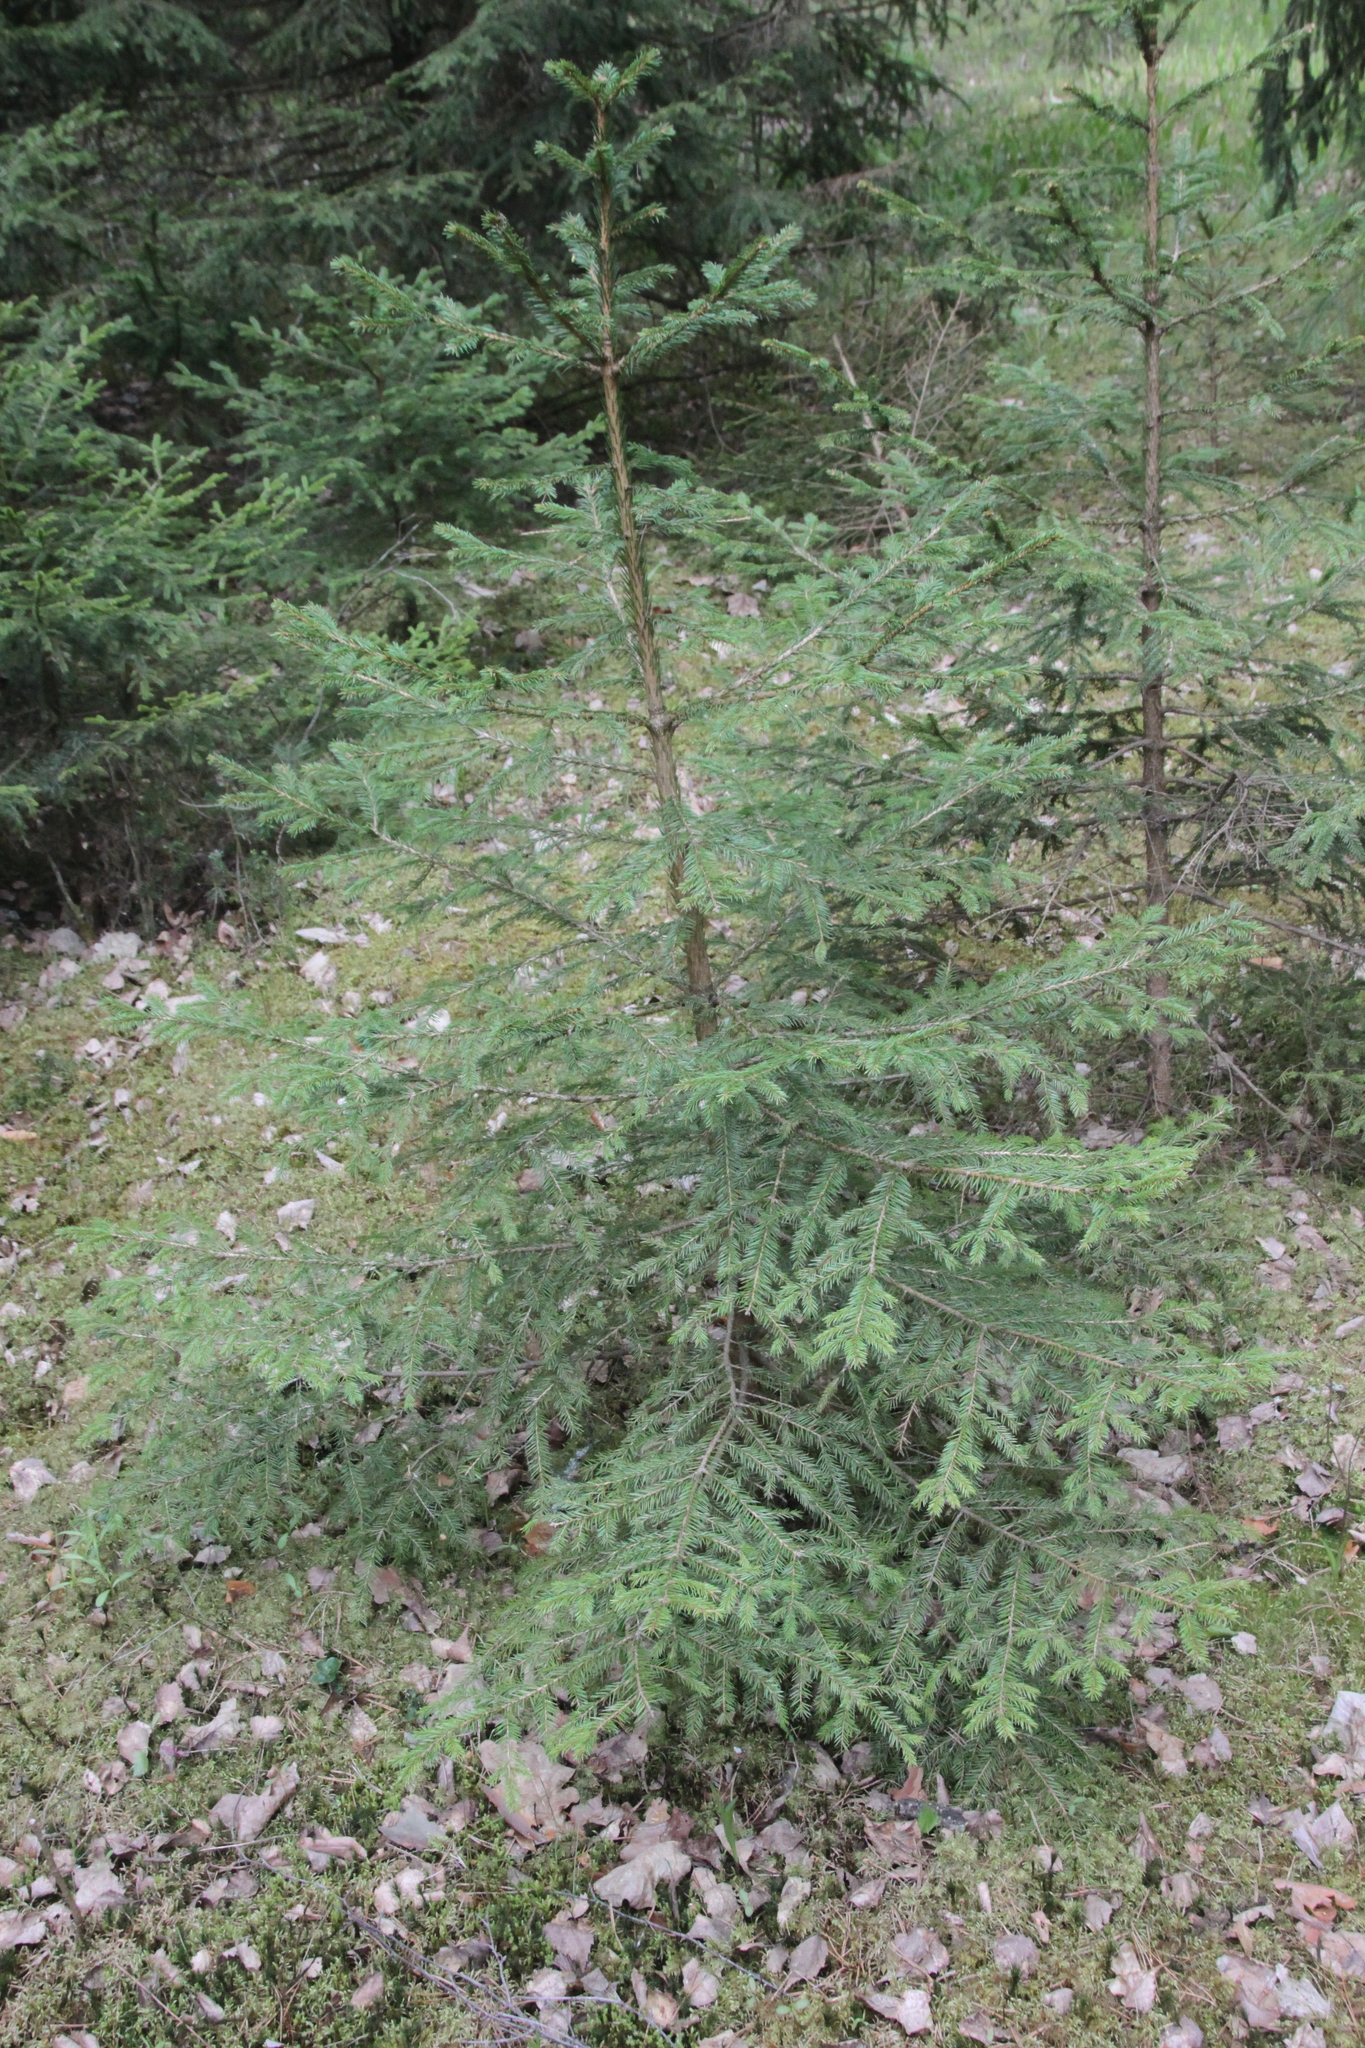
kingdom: Plantae
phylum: Tracheophyta
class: Pinopsida
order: Pinales
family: Pinaceae
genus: Picea
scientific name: Picea abies
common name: Norway spruce
